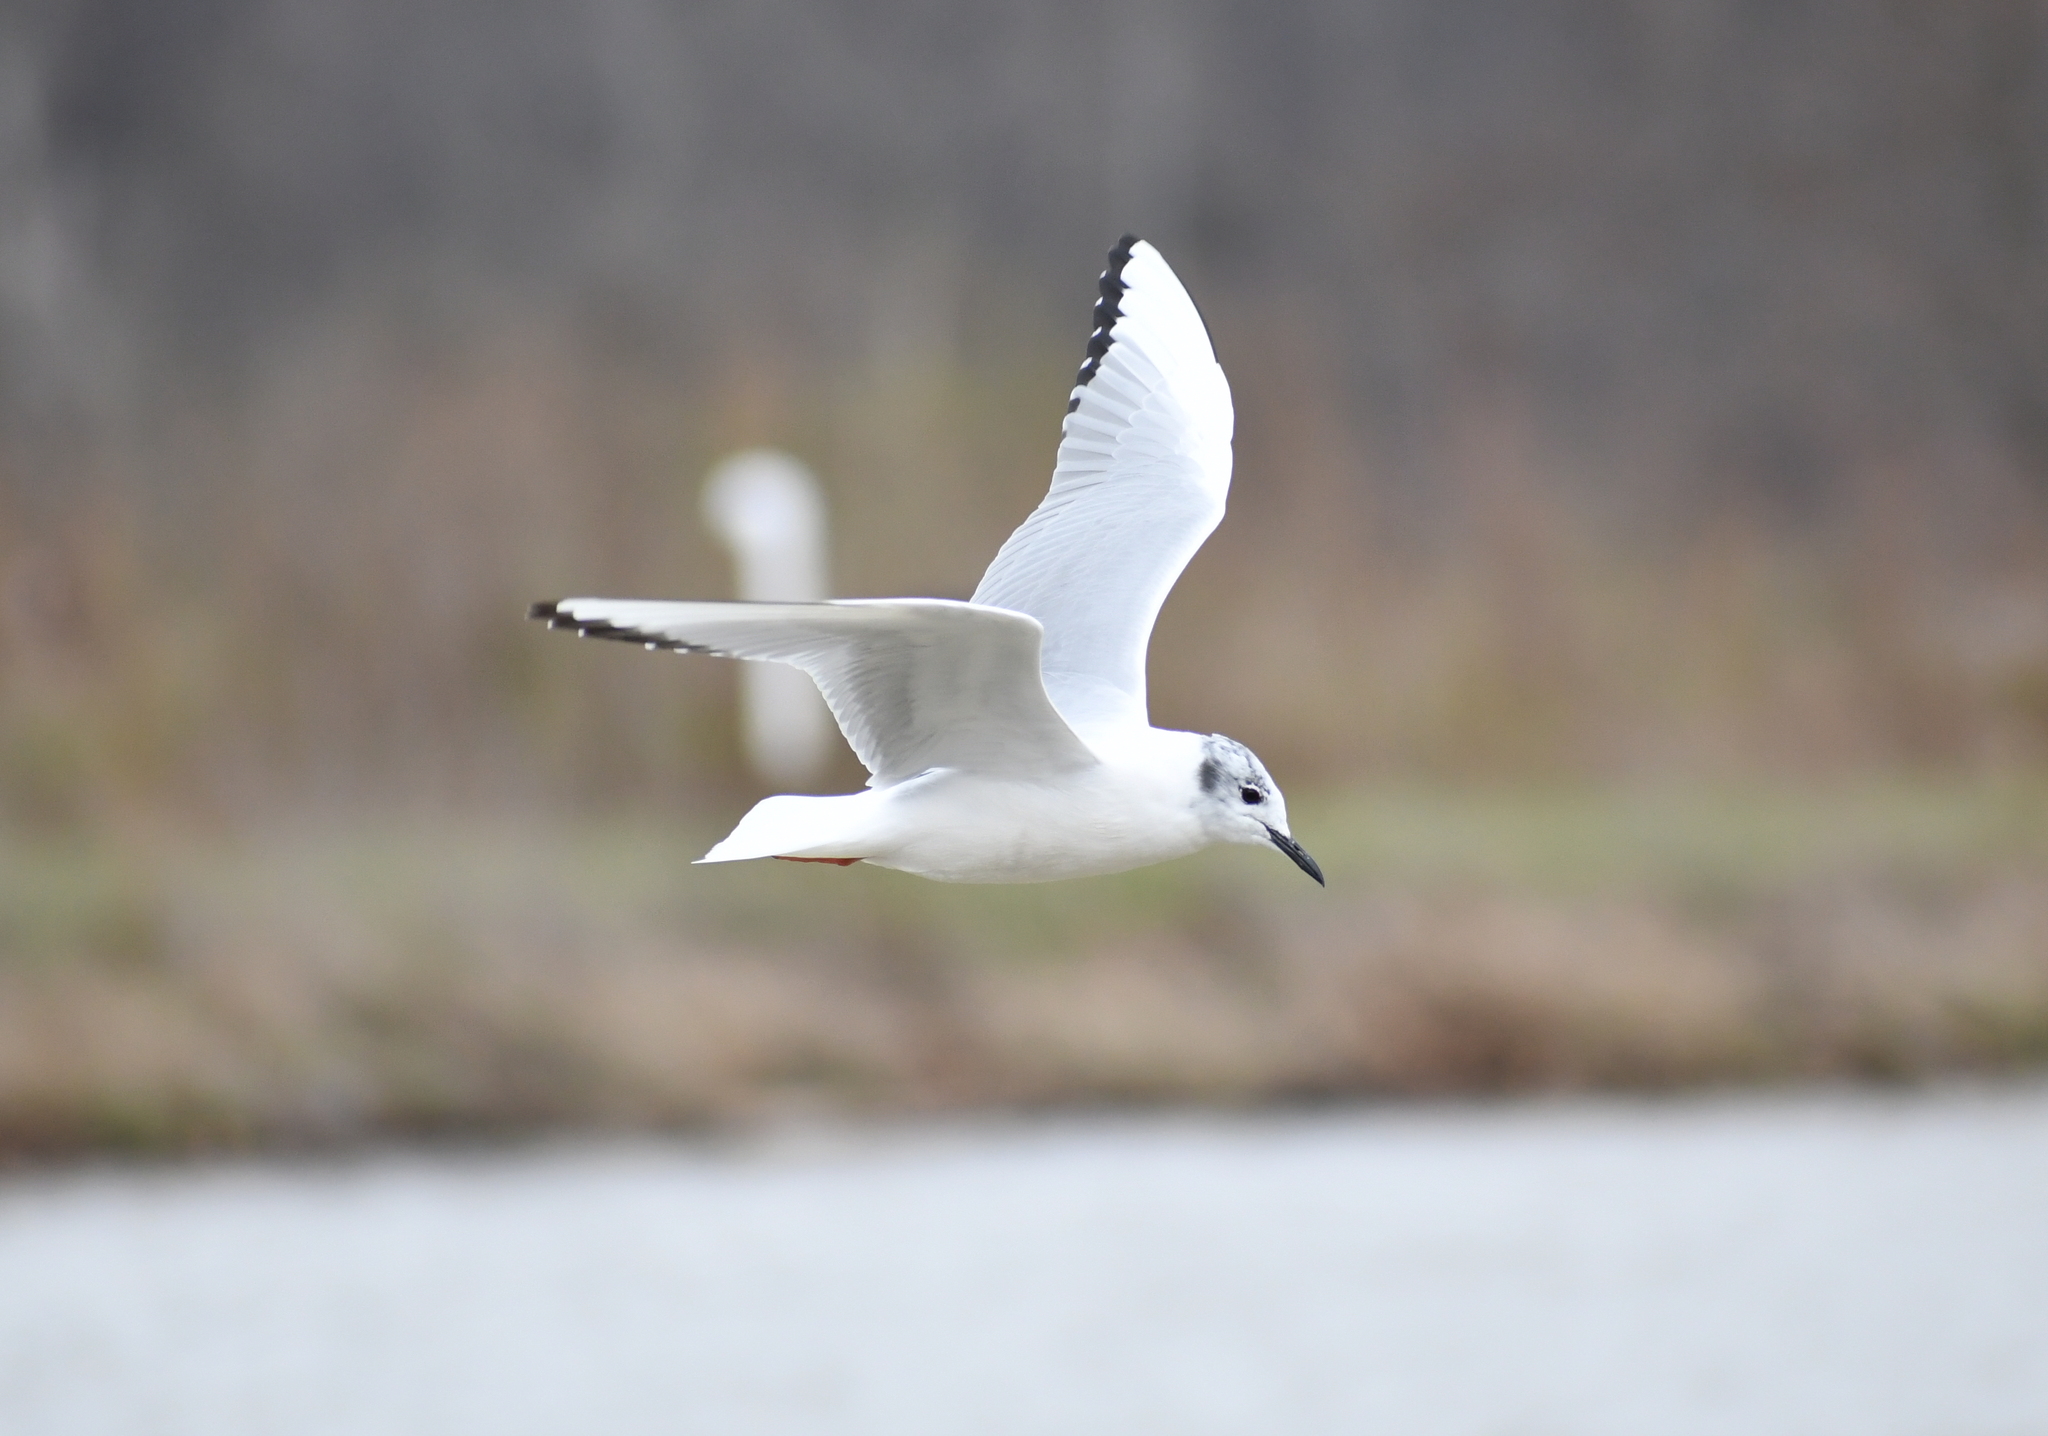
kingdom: Animalia
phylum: Chordata
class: Aves
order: Charadriiformes
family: Laridae
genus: Chroicocephalus
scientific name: Chroicocephalus philadelphia
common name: Bonaparte's gull
